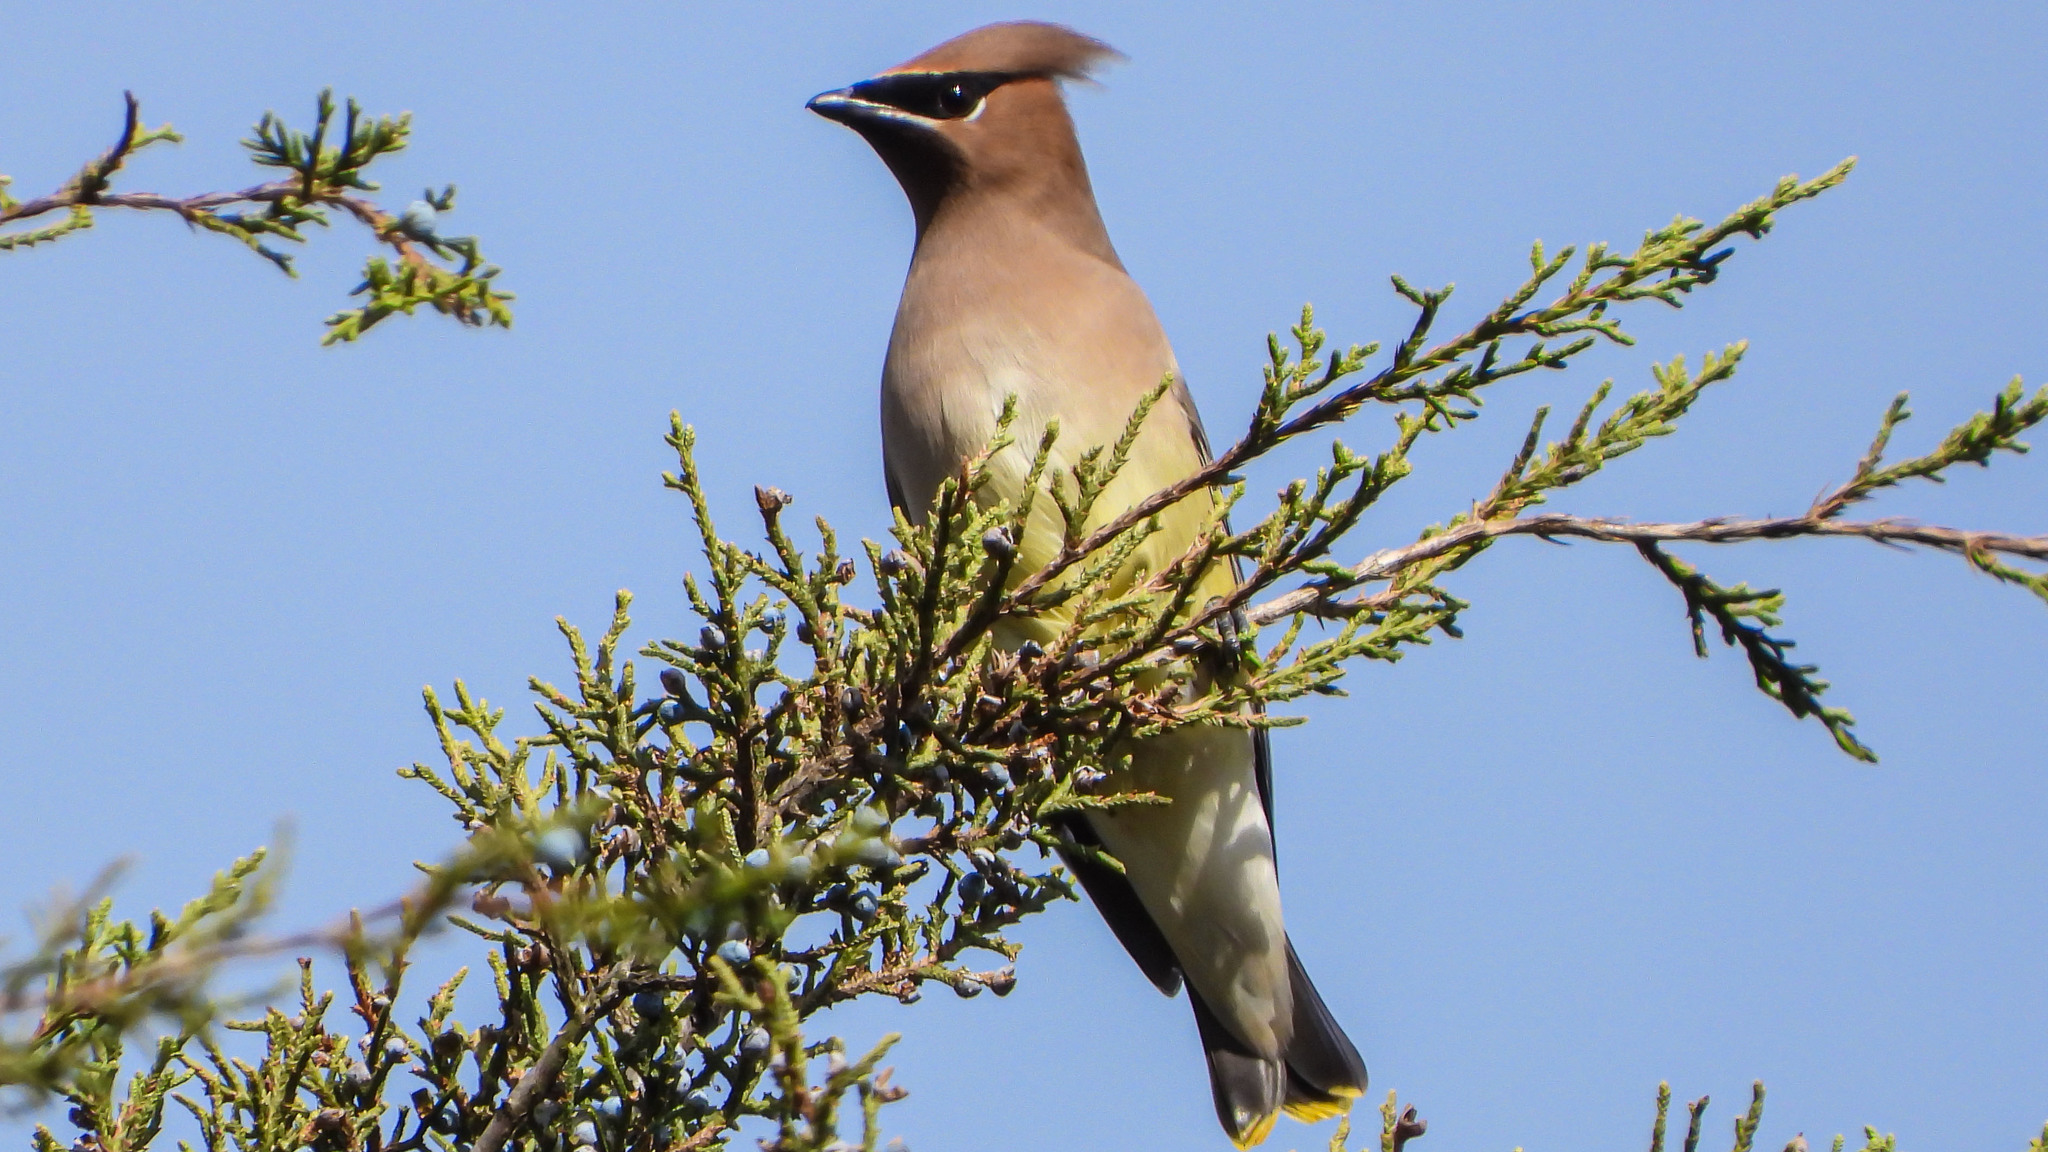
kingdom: Animalia
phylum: Chordata
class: Aves
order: Passeriformes
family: Bombycillidae
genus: Bombycilla
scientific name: Bombycilla cedrorum
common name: Cedar waxwing
